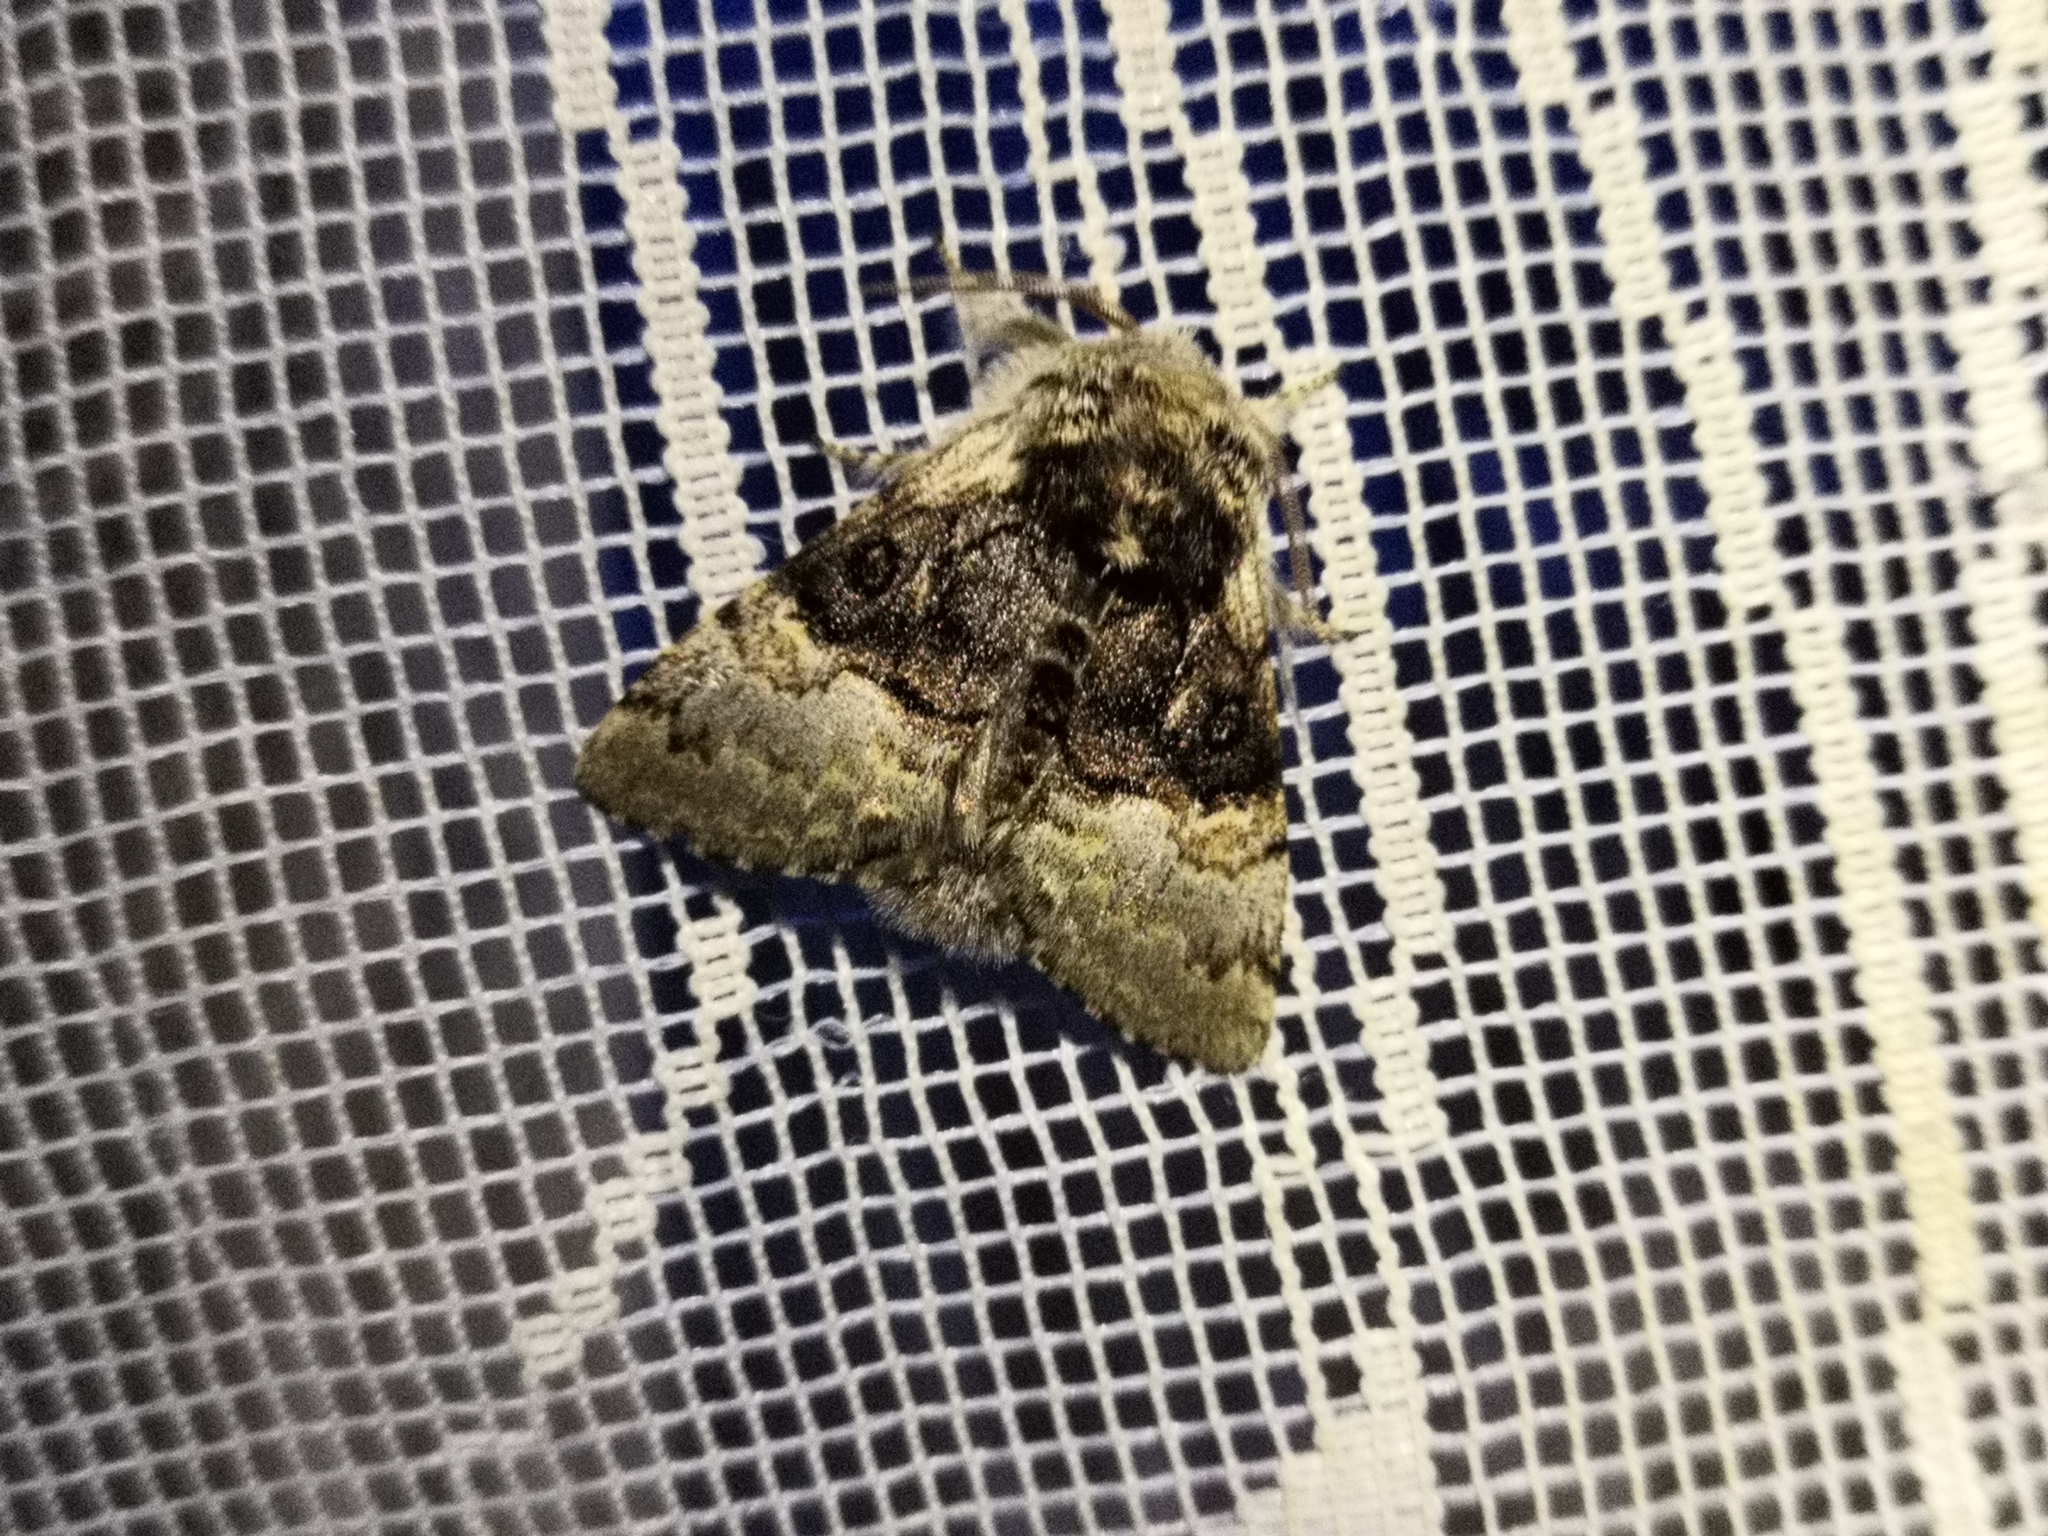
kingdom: Animalia
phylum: Arthropoda
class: Insecta
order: Lepidoptera
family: Noctuidae
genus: Colocasia
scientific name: Colocasia coryli
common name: Nut-tree tussock
